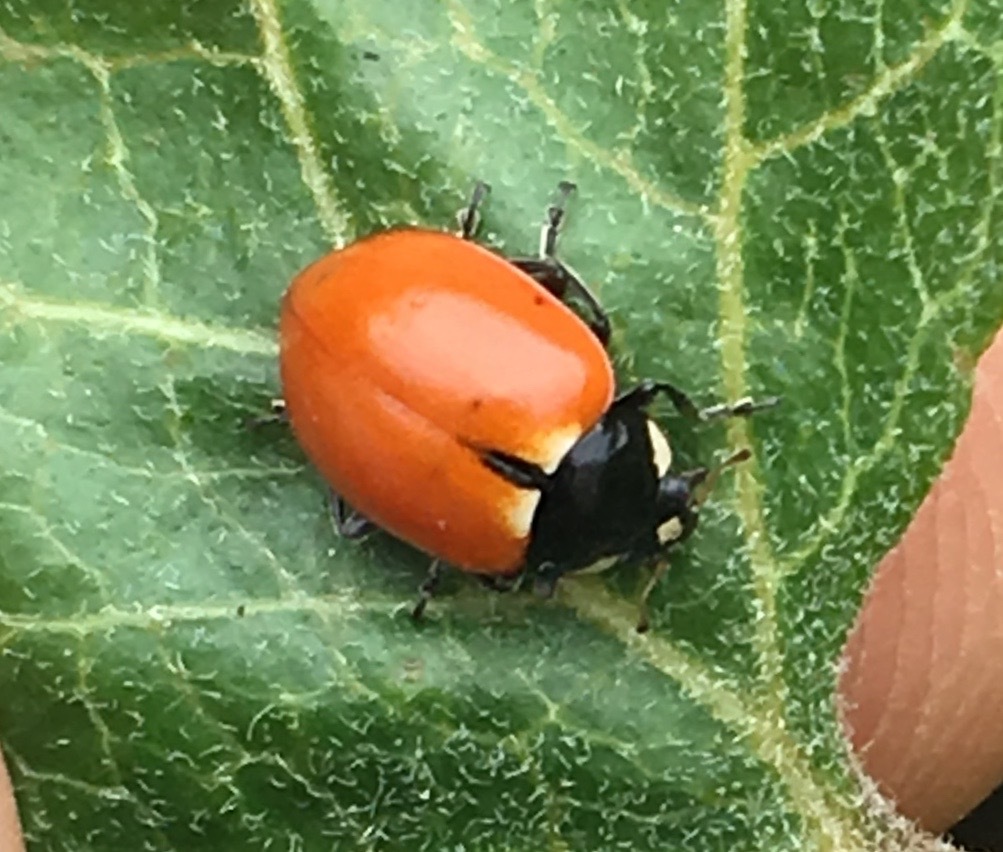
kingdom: Animalia
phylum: Arthropoda
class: Insecta
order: Coleoptera
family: Coccinellidae
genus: Hippodamia
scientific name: Hippodamia quinquesignata
